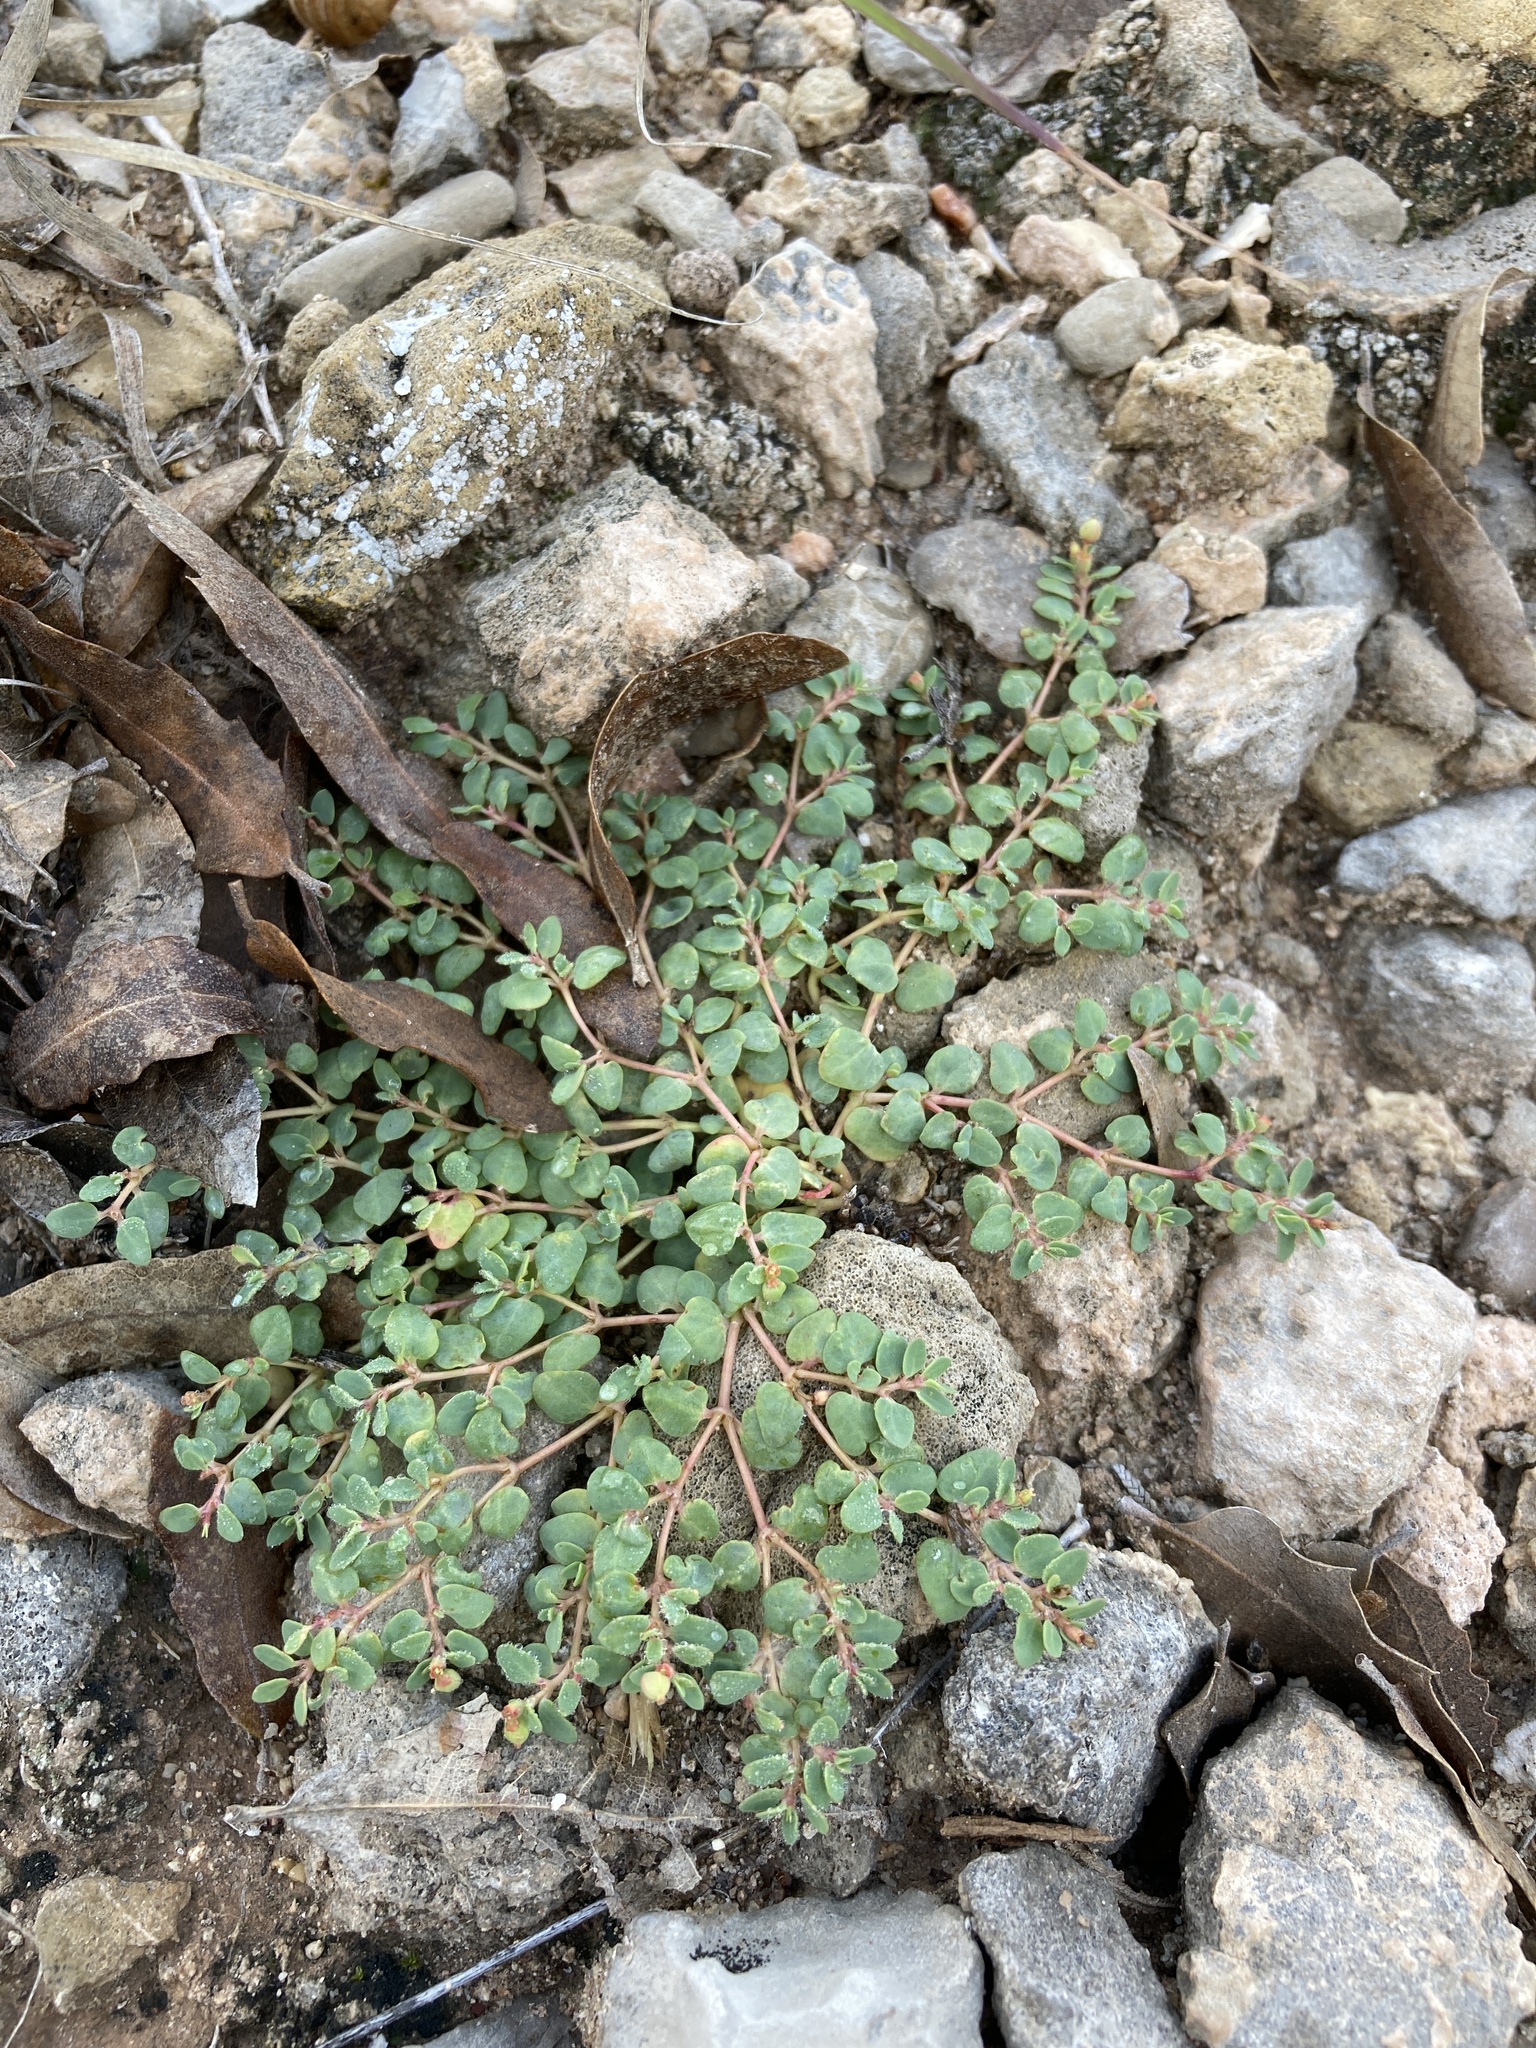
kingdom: Plantae
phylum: Tracheophyta
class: Magnoliopsida
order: Malpighiales
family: Euphorbiaceae
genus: Euphorbia
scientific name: Euphorbia fendleri
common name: Fendler's euphorbia
